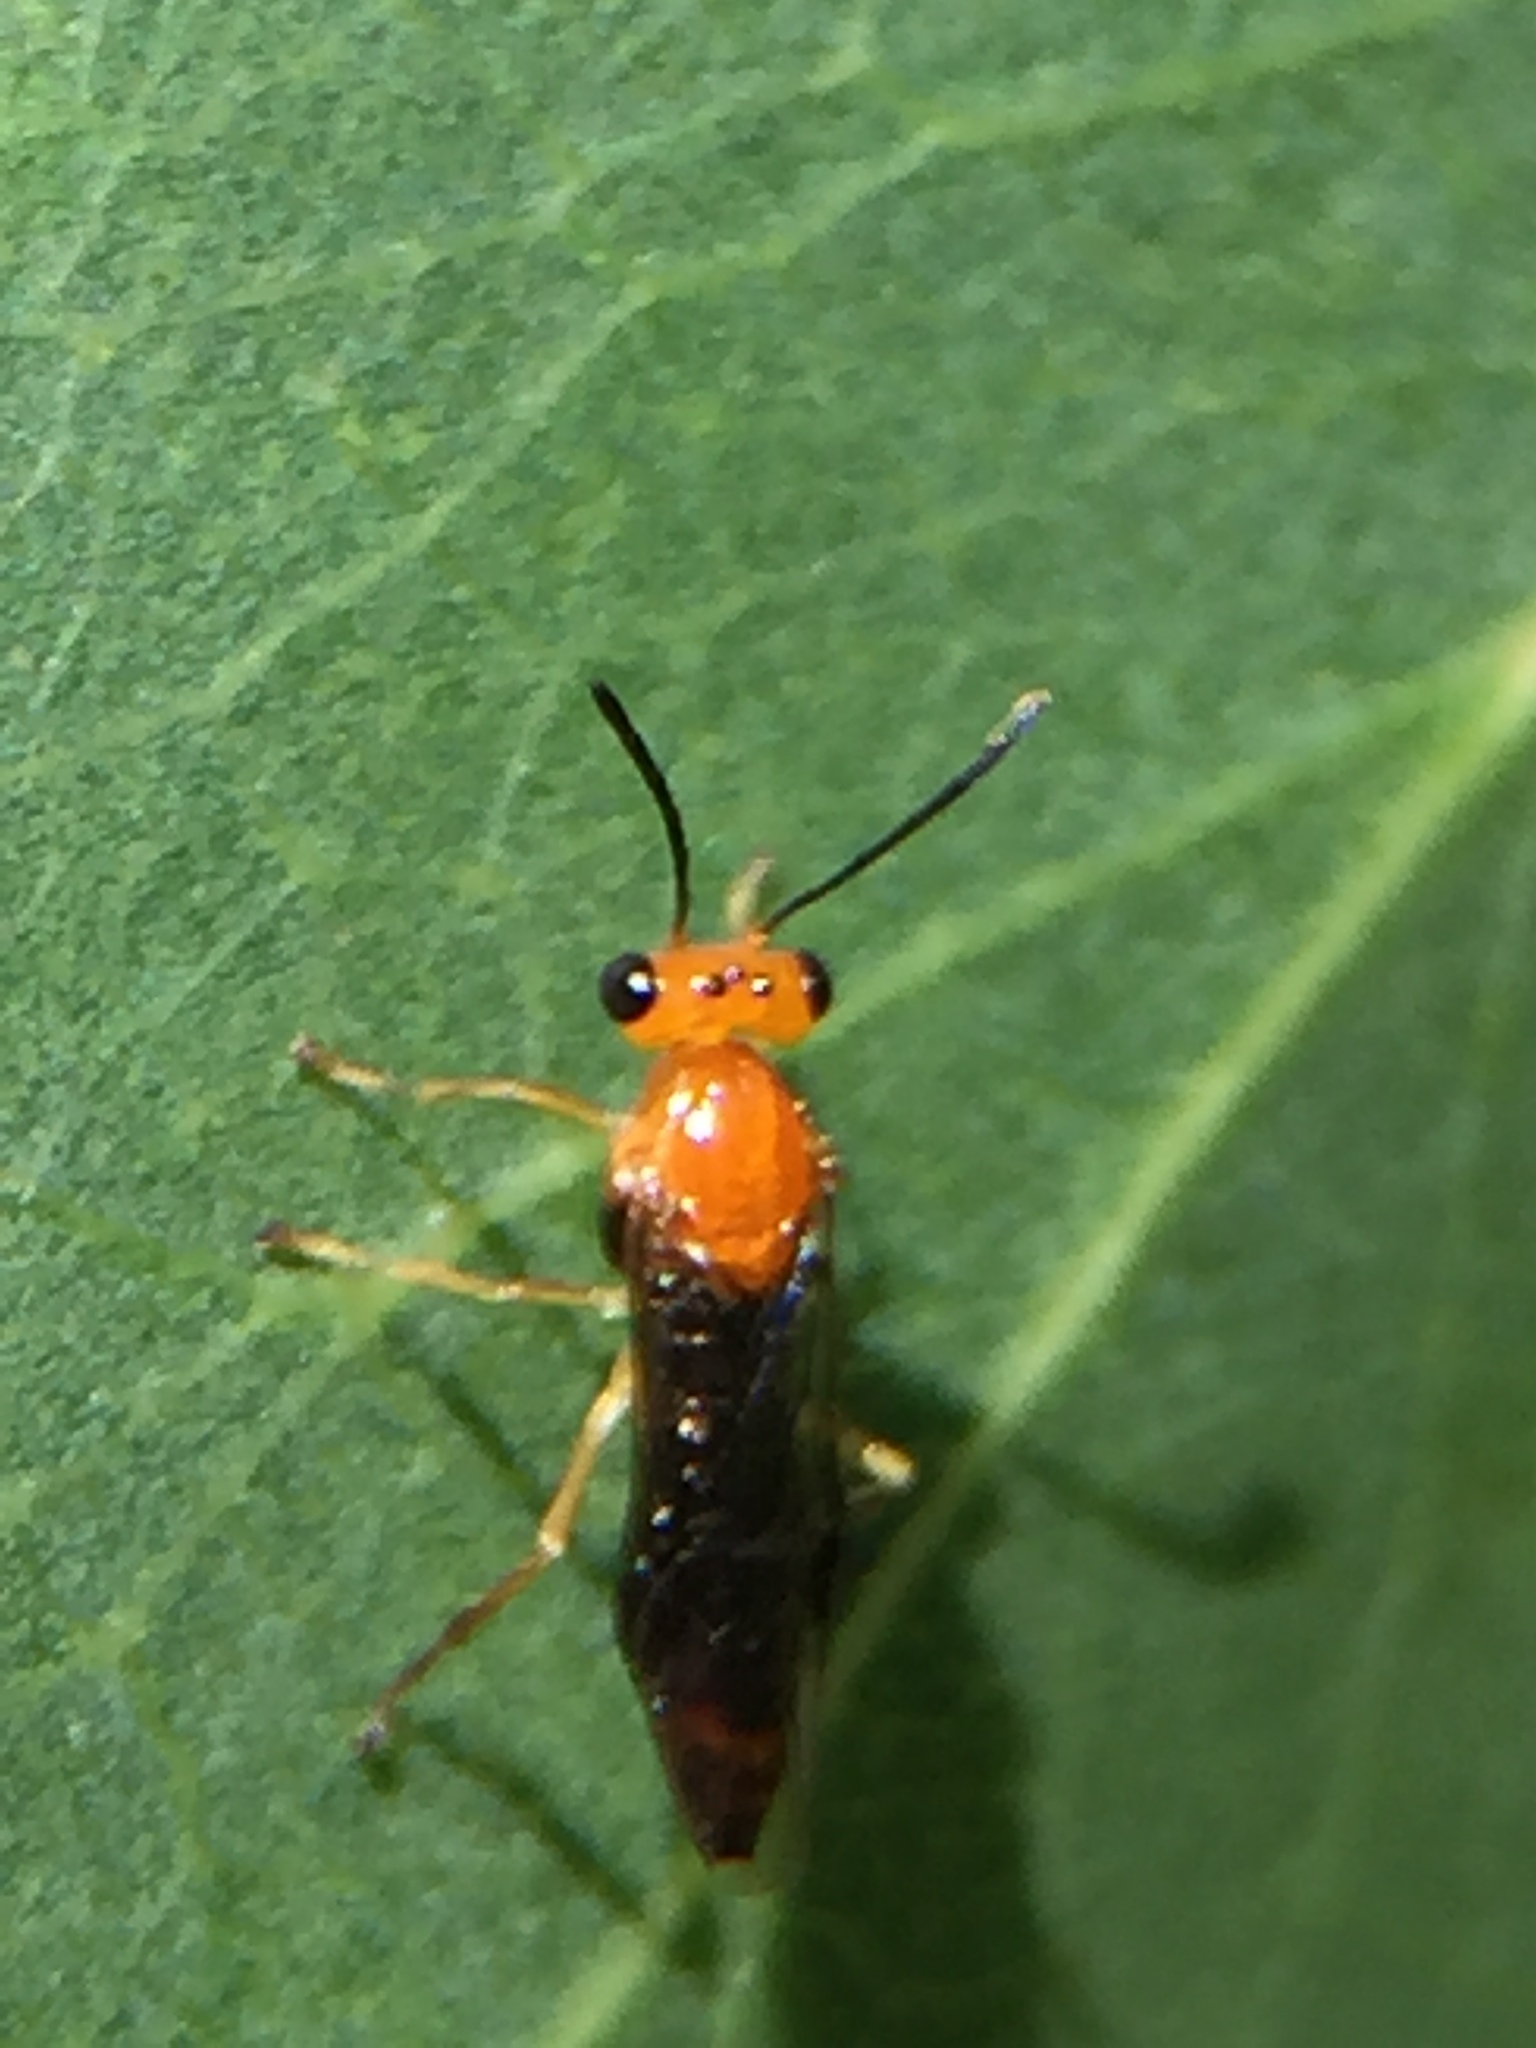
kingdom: Animalia
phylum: Arthropoda
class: Insecta
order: Hymenoptera
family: Pergidae
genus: Phylacteophaga
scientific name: Phylacteophaga froggatti
